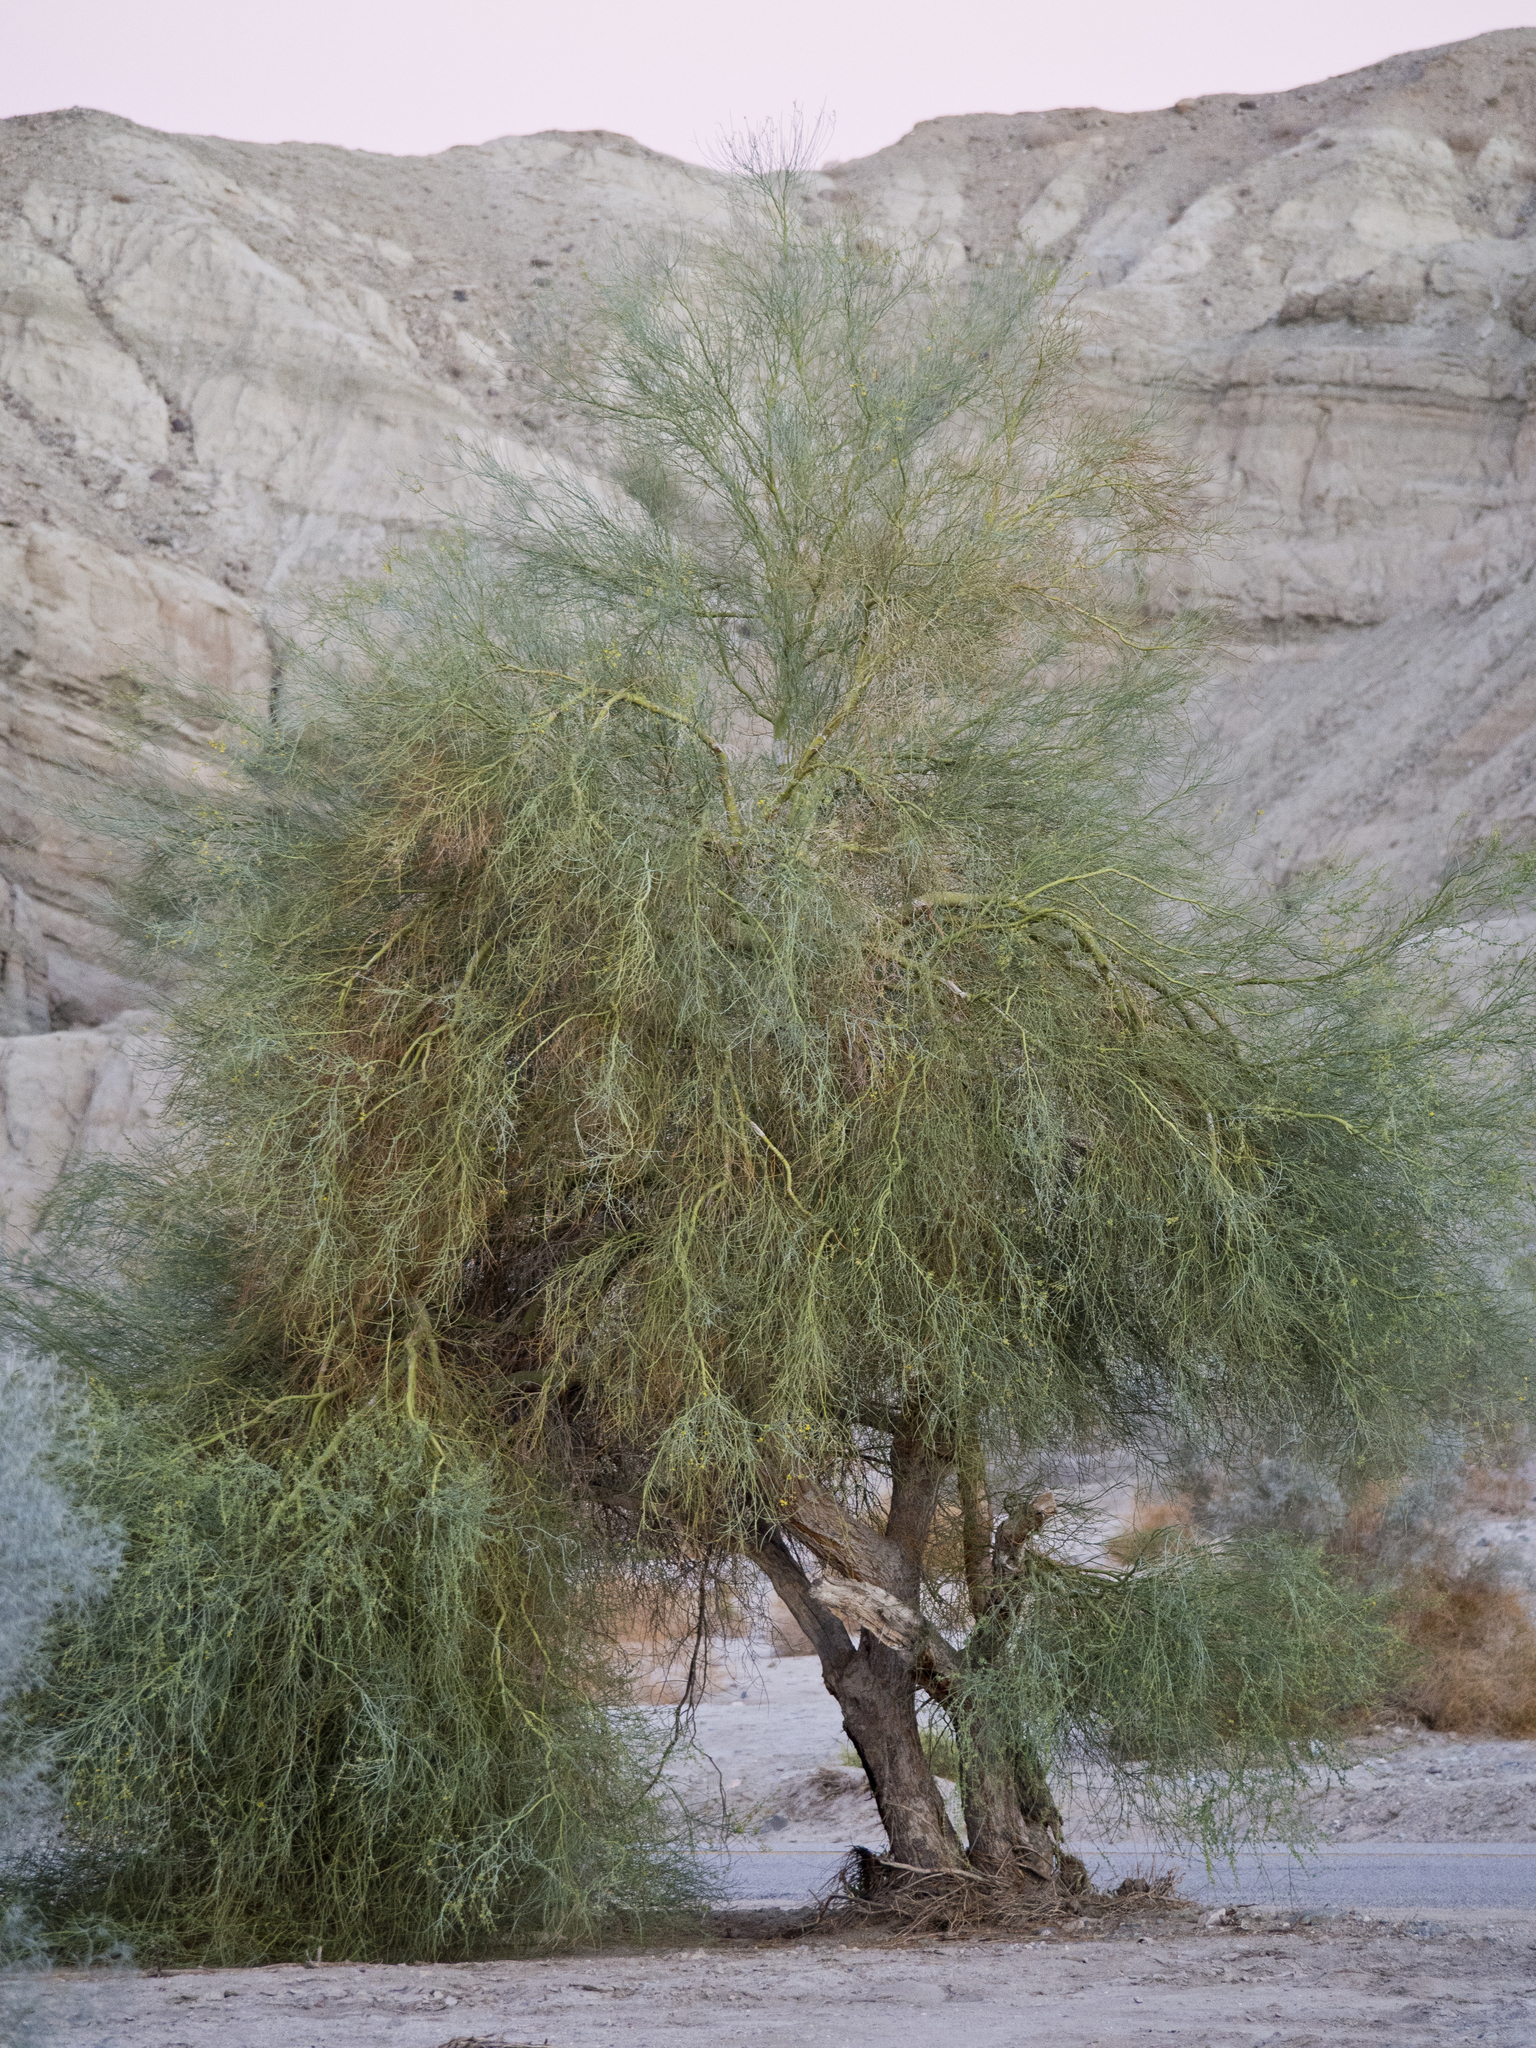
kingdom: Plantae
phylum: Tracheophyta
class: Magnoliopsida
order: Fabales
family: Fabaceae
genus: Parkinsonia
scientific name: Parkinsonia florida
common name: Blue paloverde
